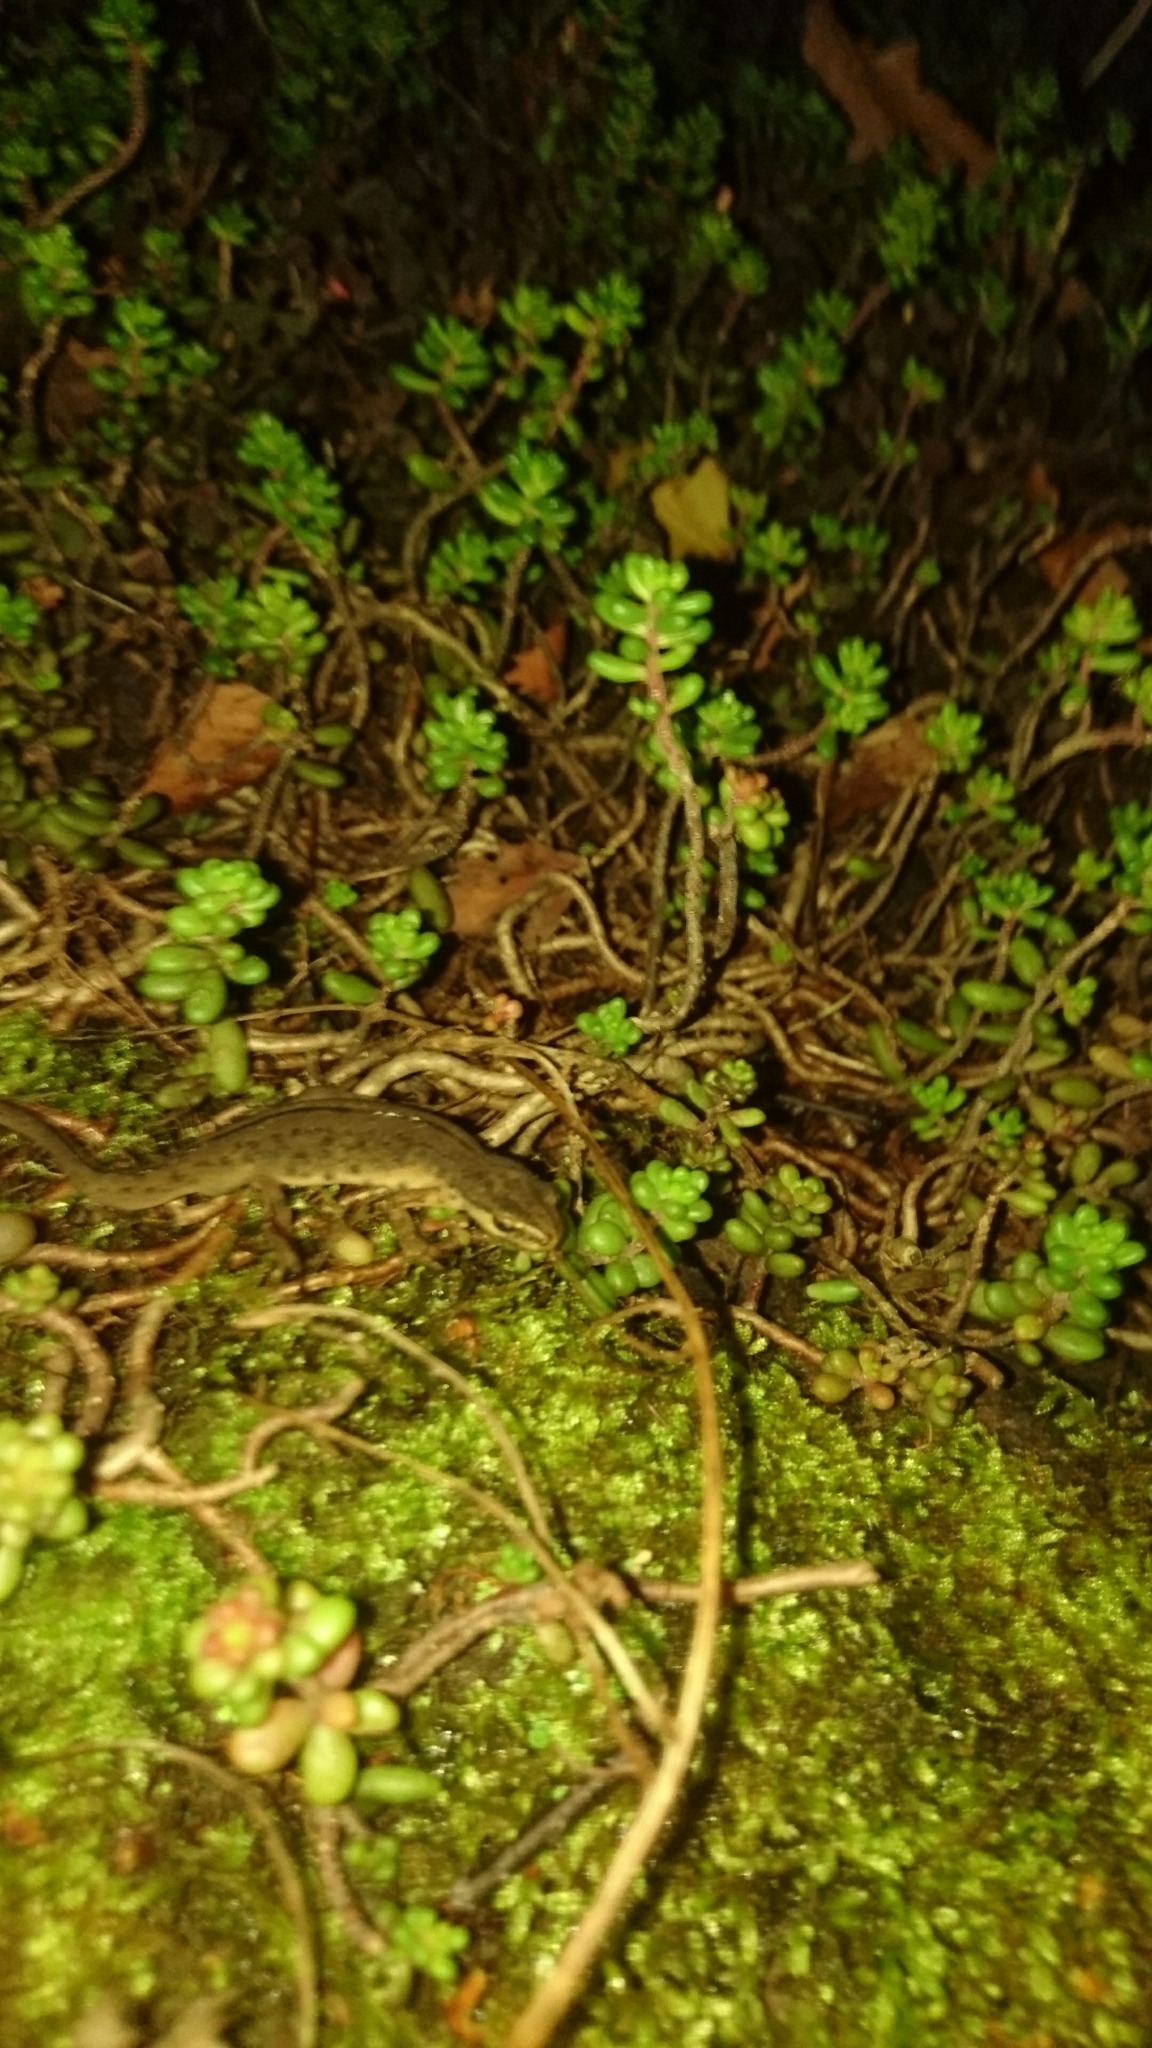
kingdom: Animalia
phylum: Chordata
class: Amphibia
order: Caudata
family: Salamandridae
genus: Lissotriton
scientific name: Lissotriton vulgaris
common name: Smooth newt
